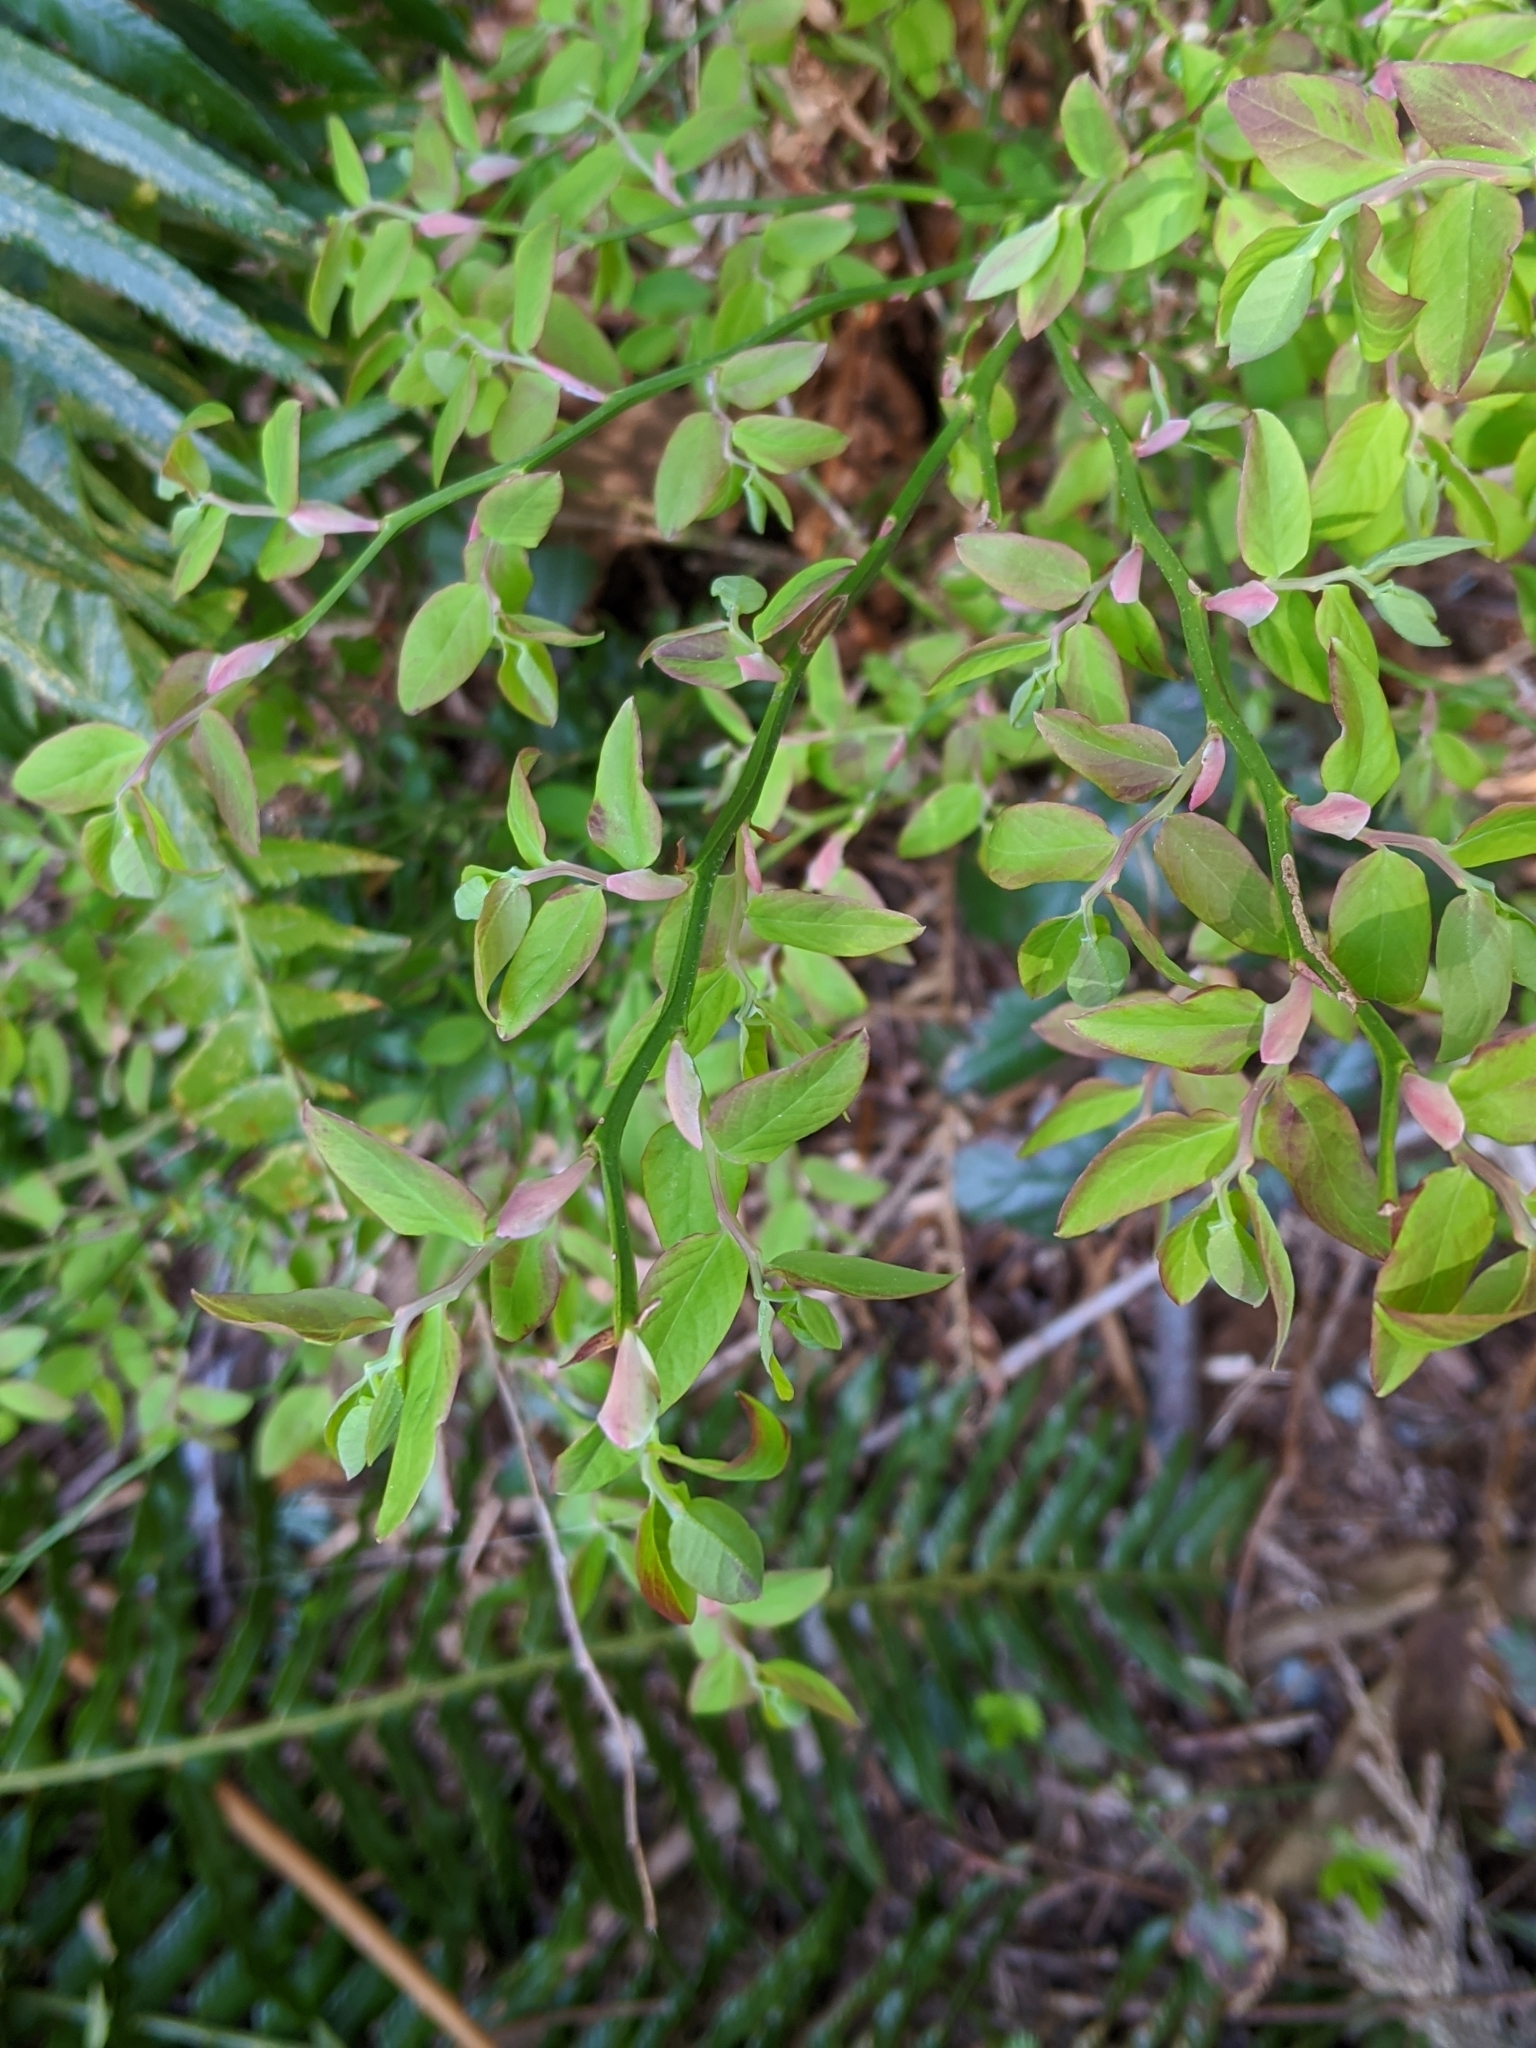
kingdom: Plantae
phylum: Tracheophyta
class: Magnoliopsida
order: Ericales
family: Ericaceae
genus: Vaccinium
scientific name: Vaccinium parvifolium
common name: Red-huckleberry
